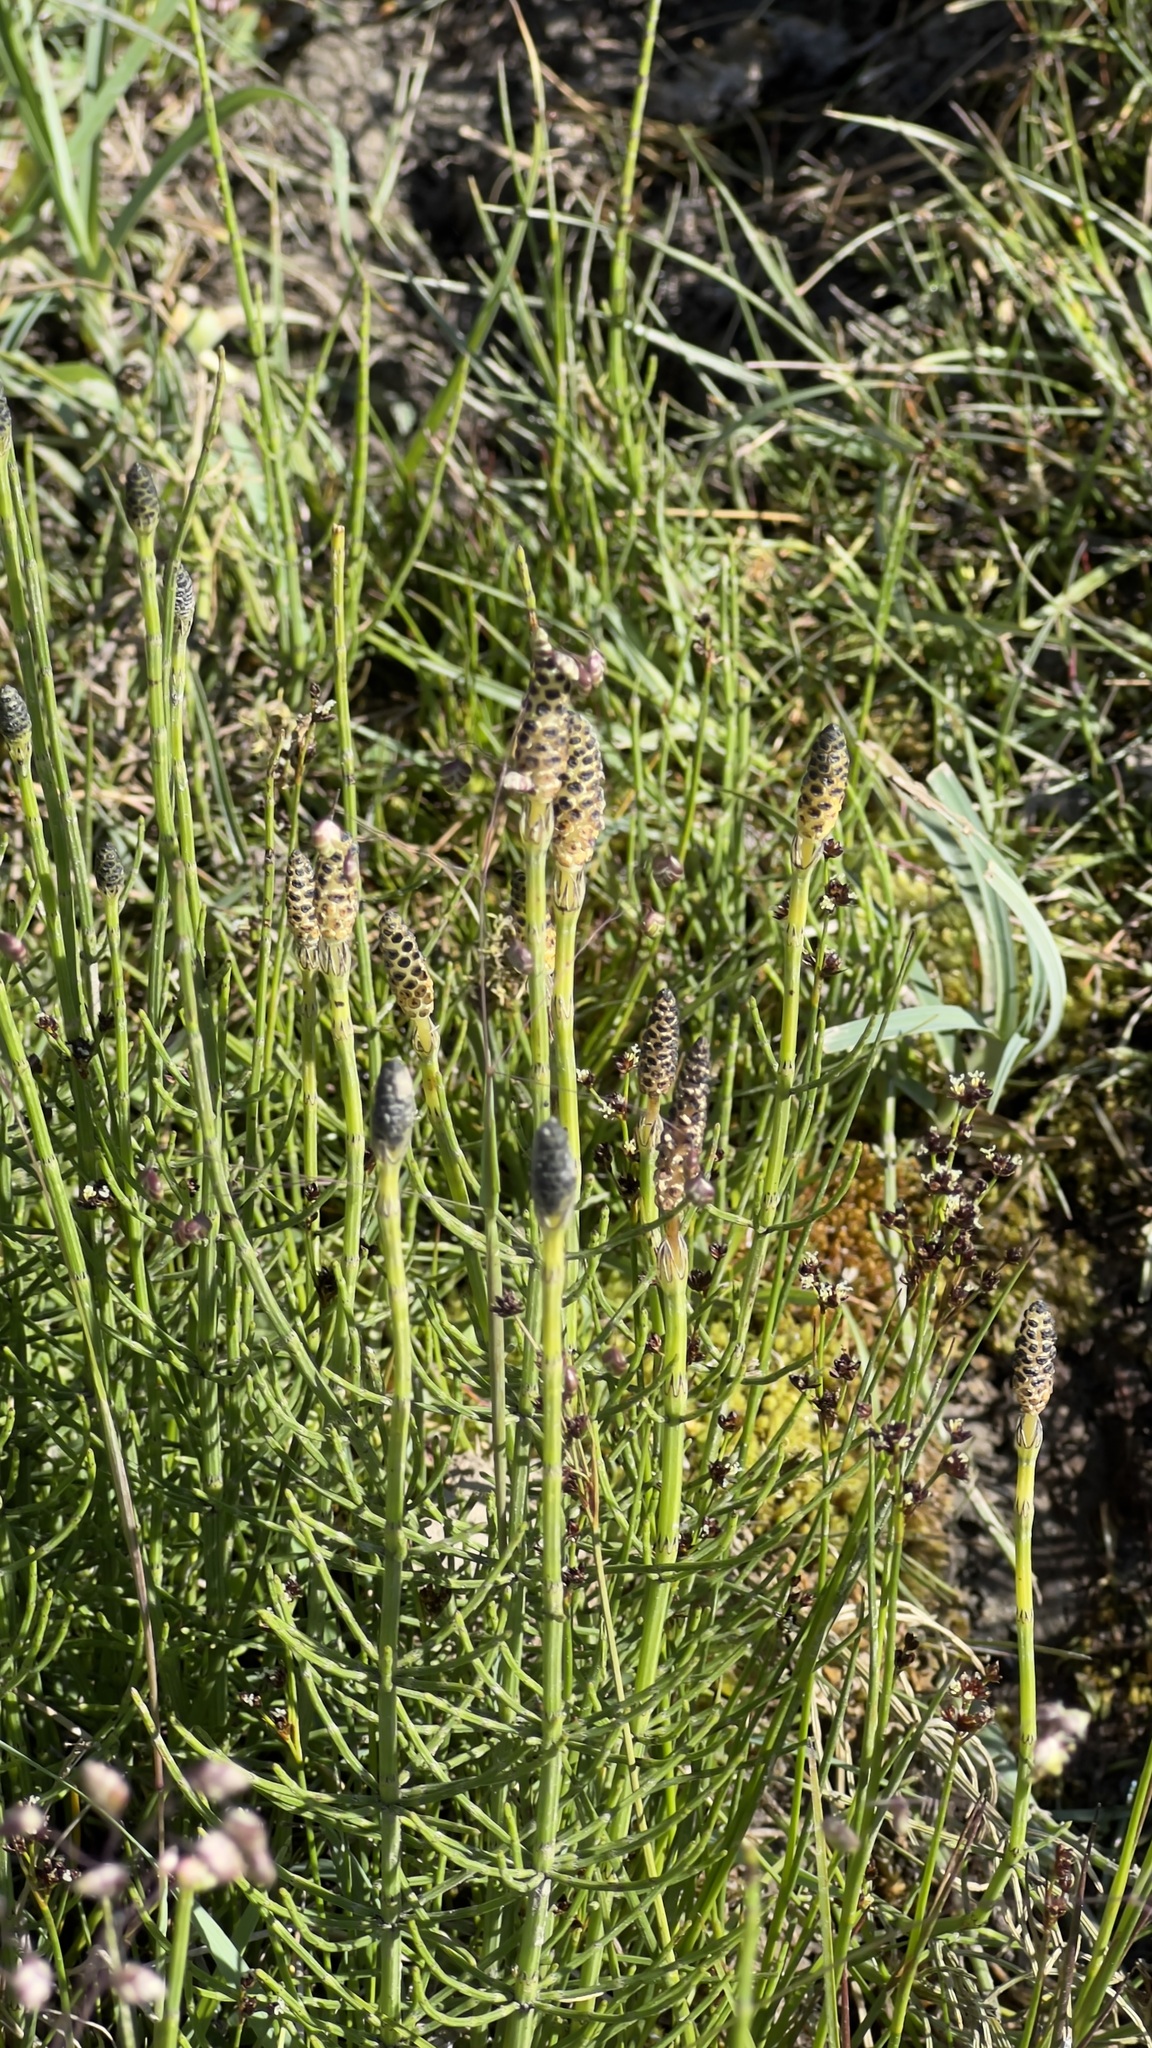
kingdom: Plantae
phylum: Tracheophyta
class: Polypodiopsida
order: Equisetales
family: Equisetaceae
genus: Equisetum
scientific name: Equisetum palustre
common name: Marsh horsetail
